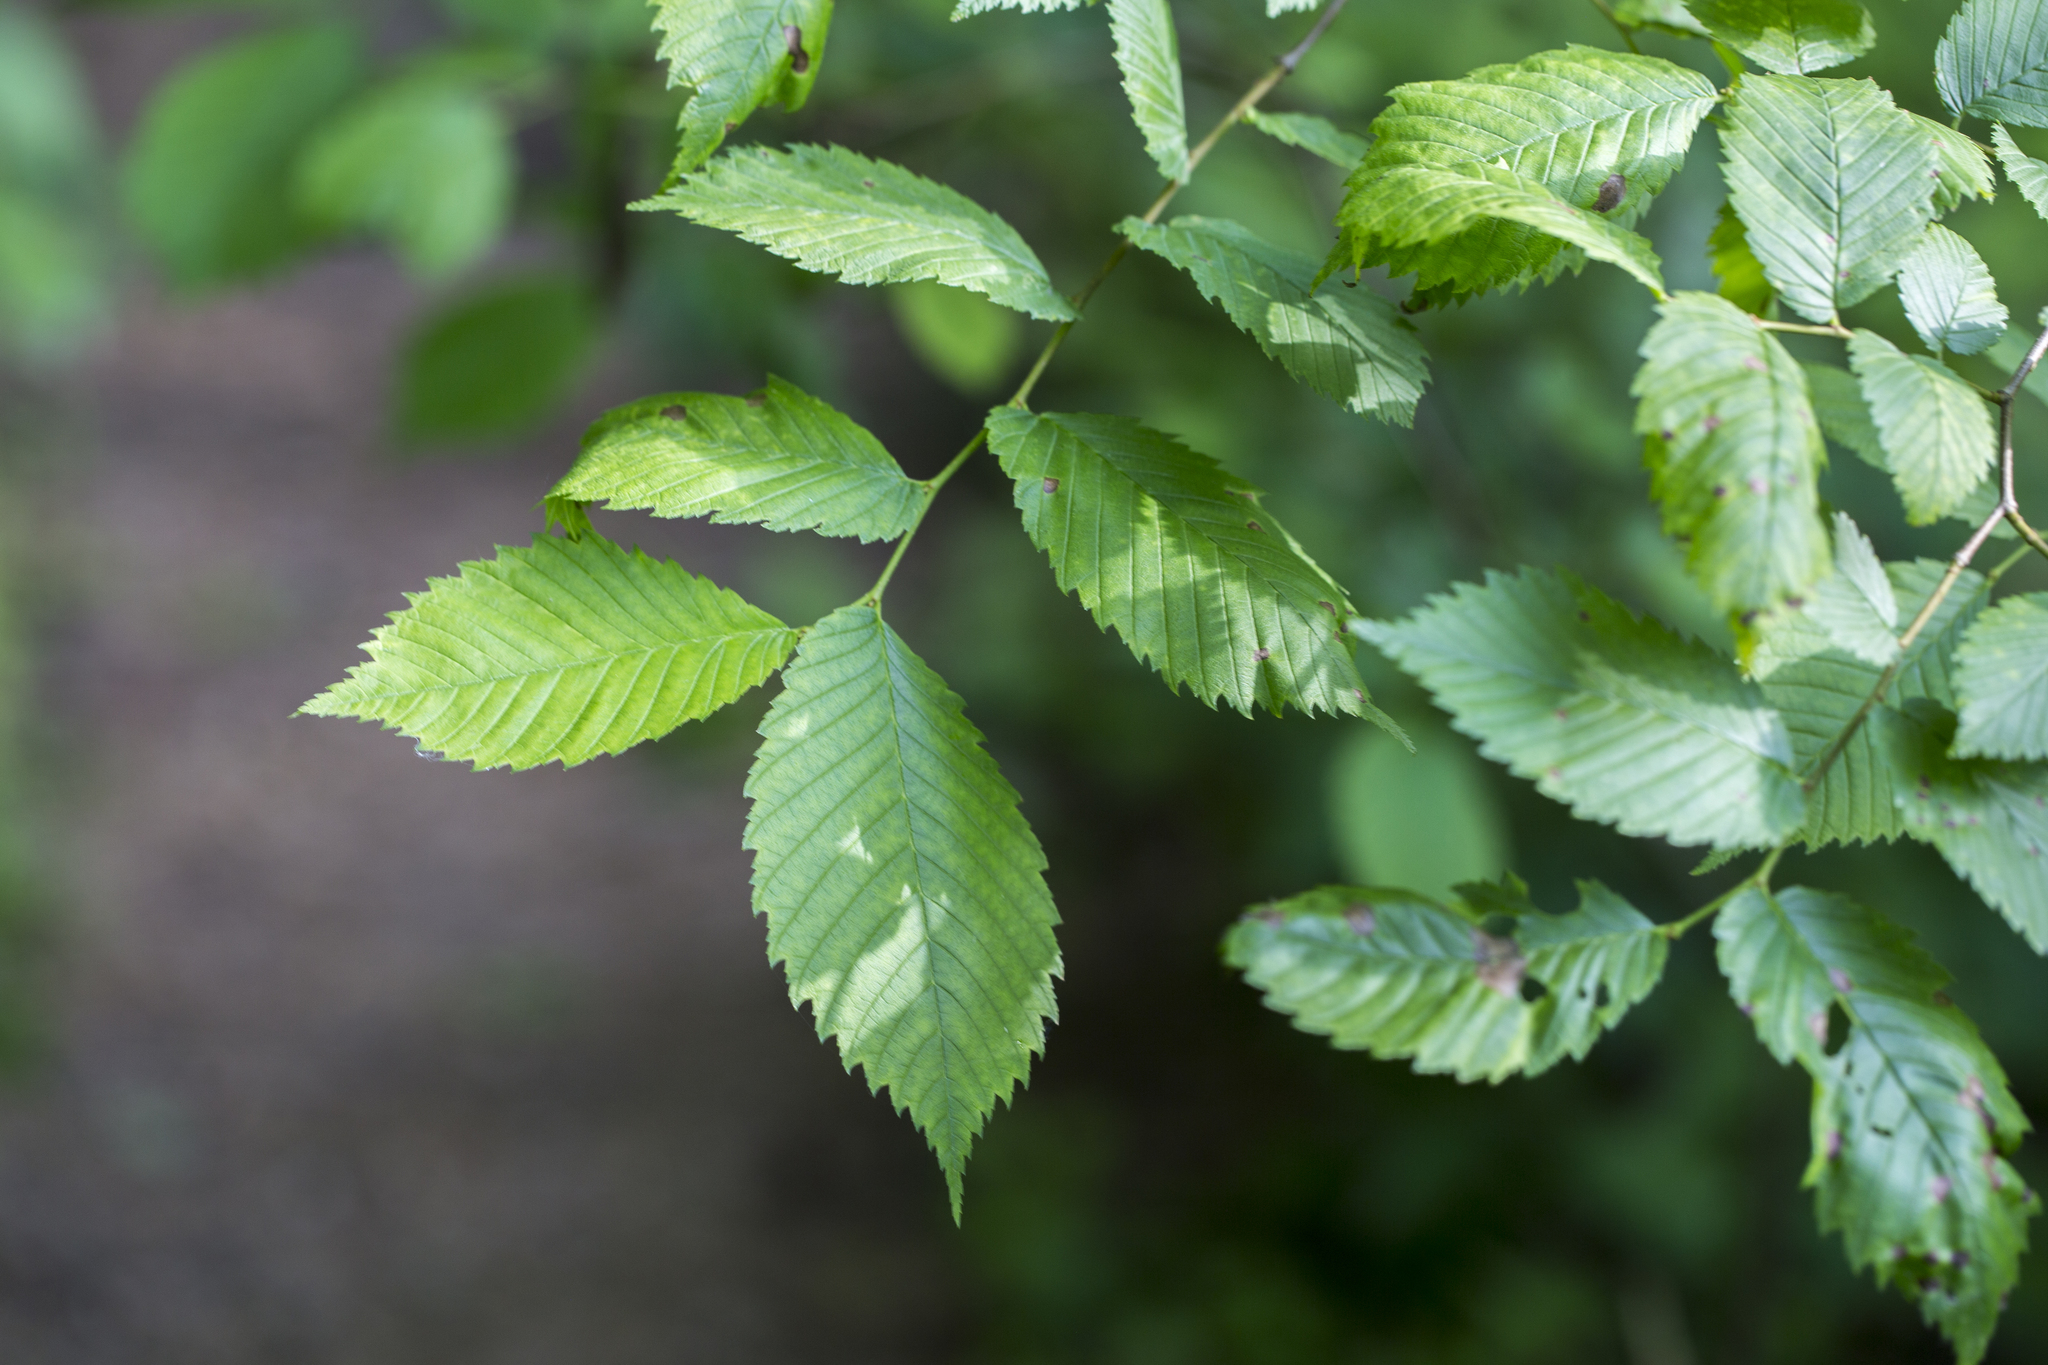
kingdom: Plantae
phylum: Tracheophyta
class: Magnoliopsida
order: Rosales
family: Ulmaceae
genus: Ulmus
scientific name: Ulmus laevis
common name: European white-elm
